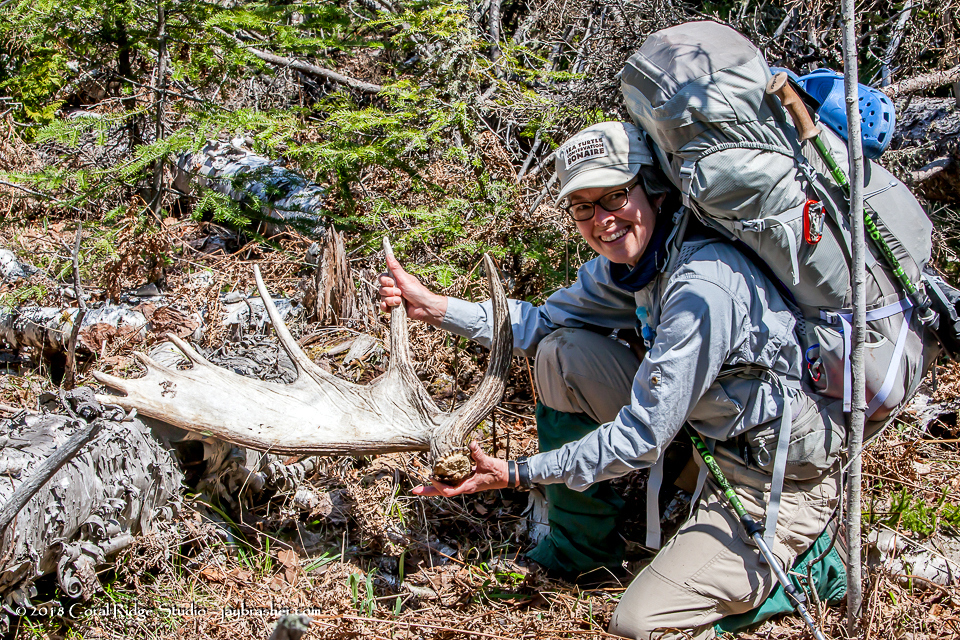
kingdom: Animalia
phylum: Chordata
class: Mammalia
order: Artiodactyla
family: Cervidae
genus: Alces
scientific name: Alces alces
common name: Moose
